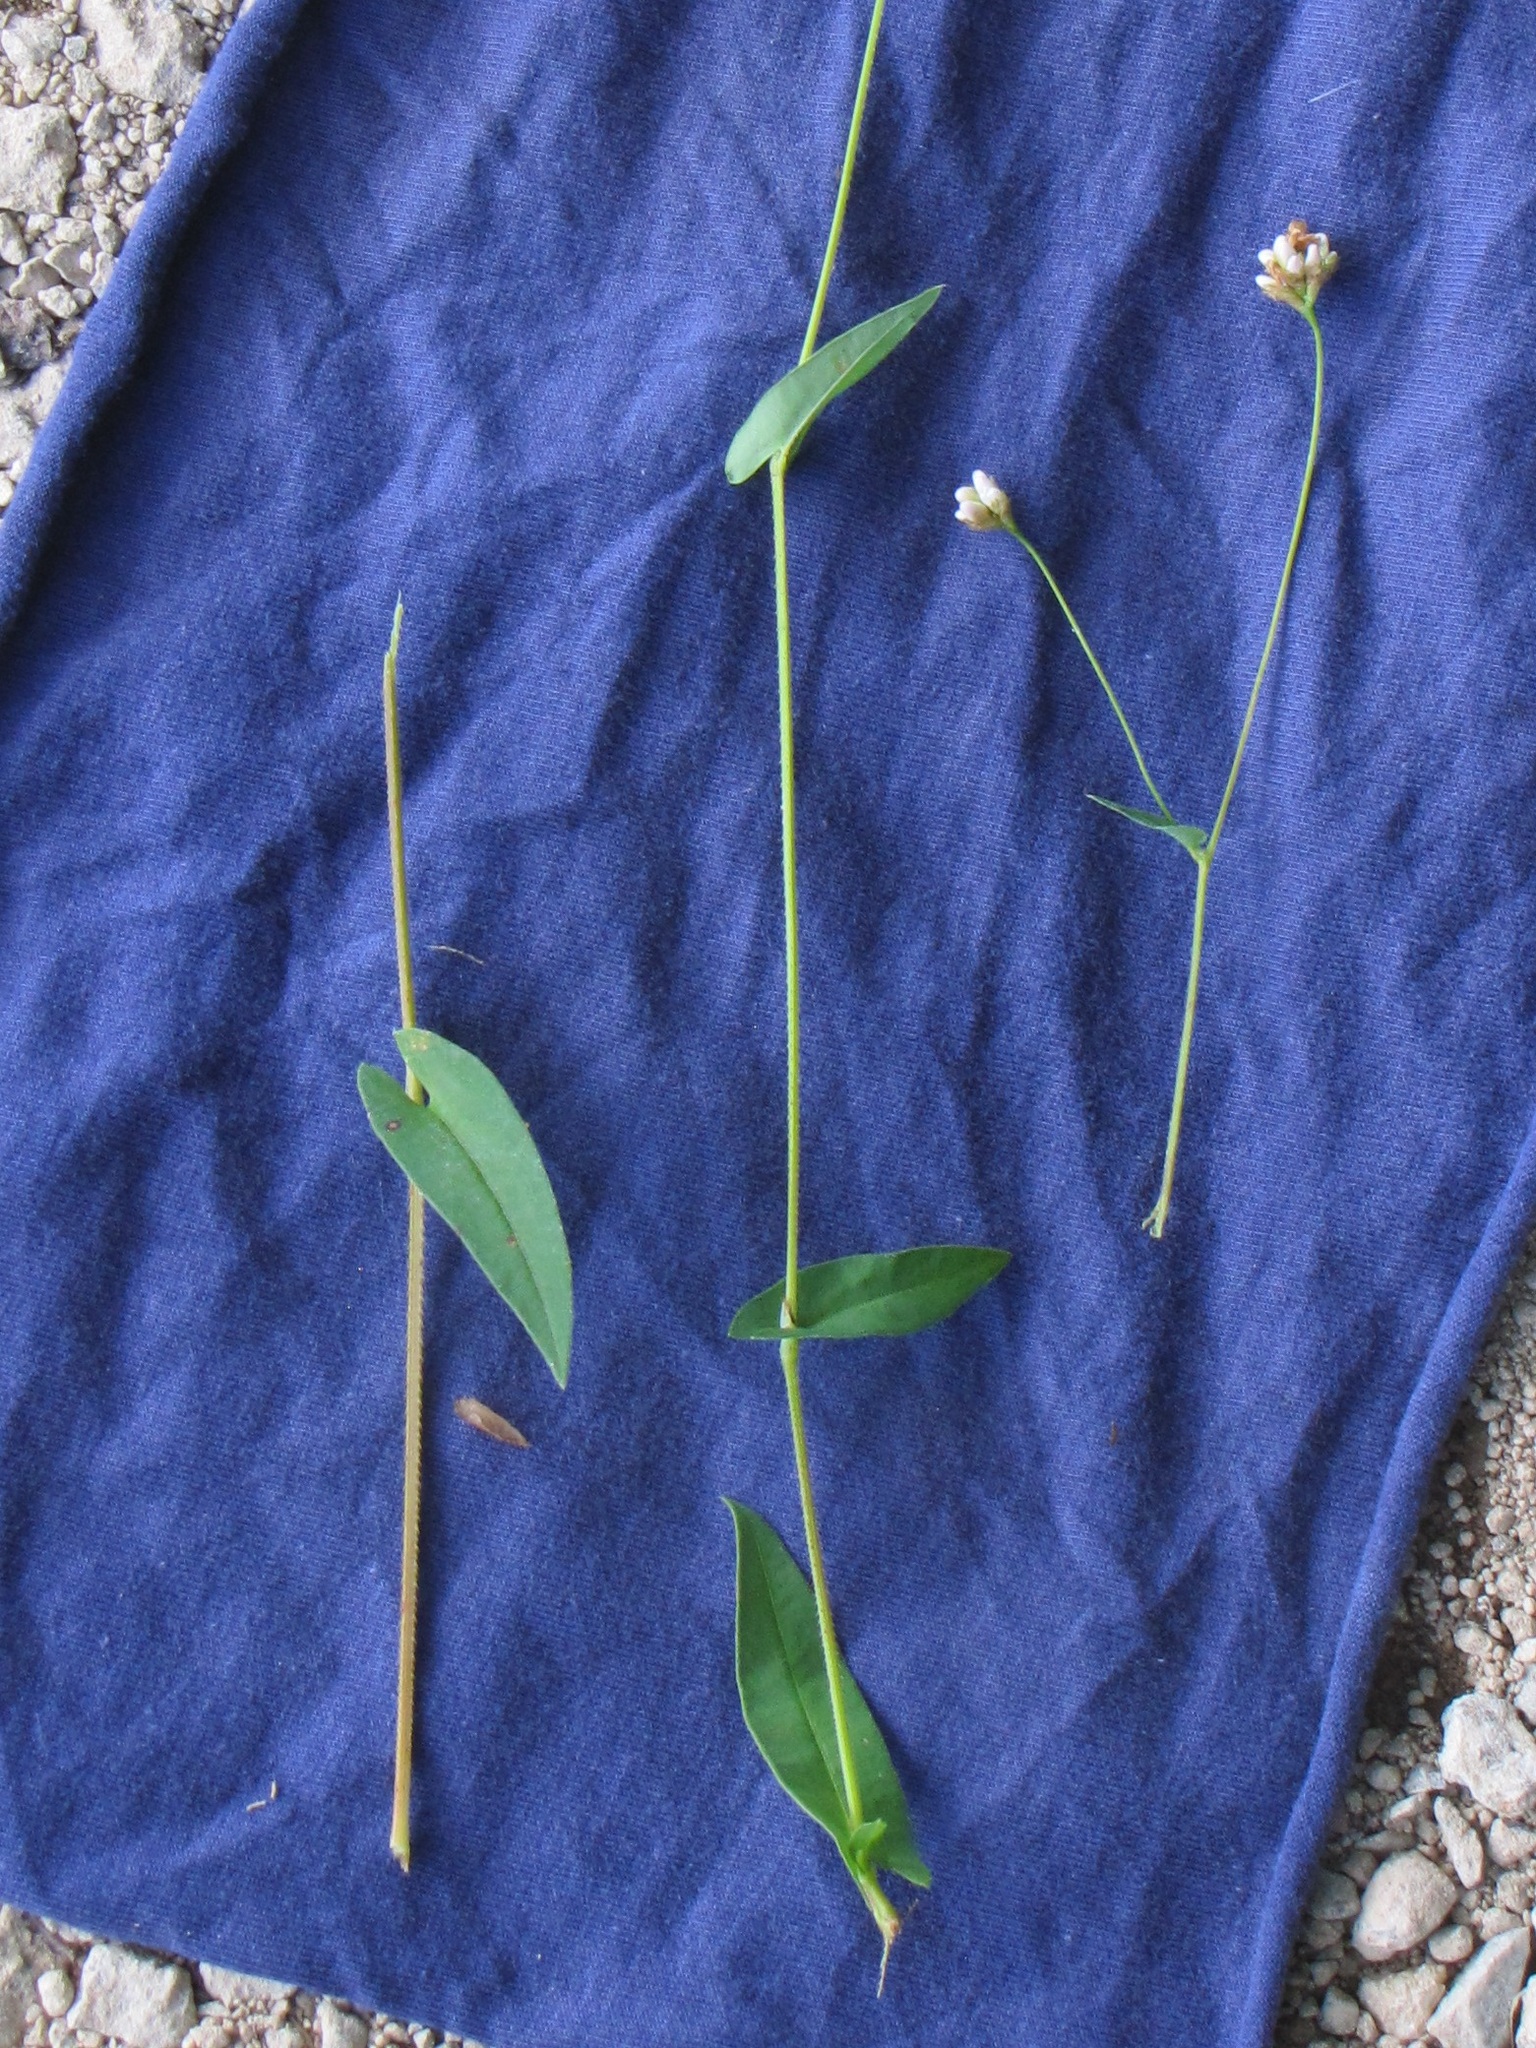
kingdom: Plantae
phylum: Tracheophyta
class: Magnoliopsida
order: Caryophyllales
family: Polygonaceae
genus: Persicaria
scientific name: Persicaria sagittata
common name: American tearthumb
